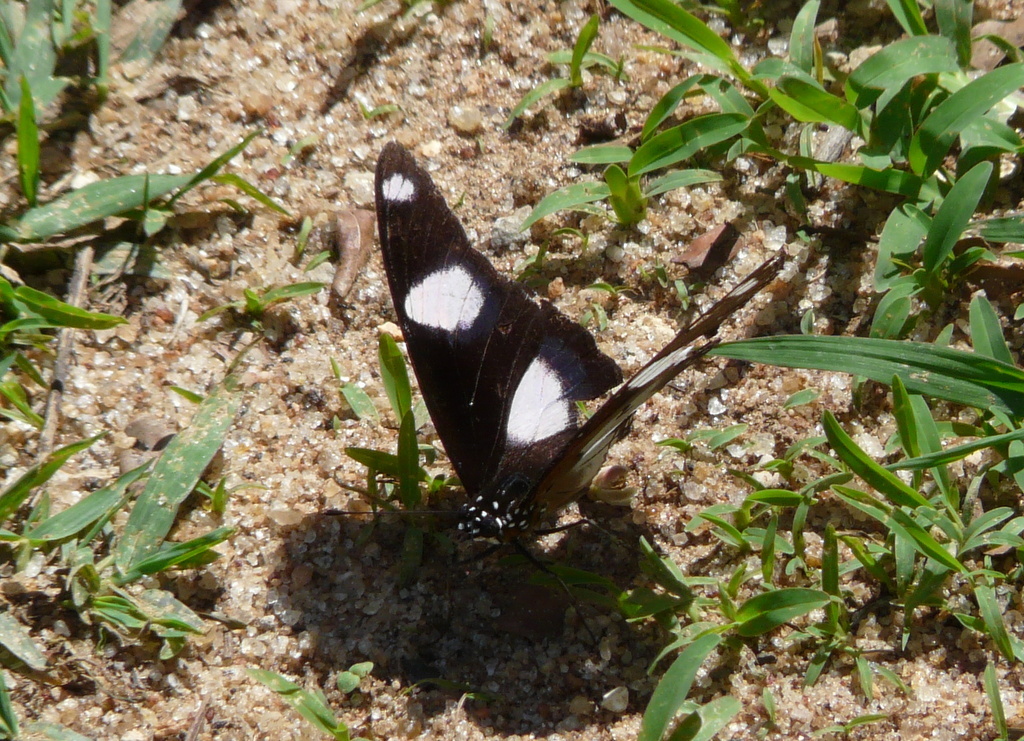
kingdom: Animalia
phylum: Arthropoda
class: Insecta
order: Lepidoptera
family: Nymphalidae
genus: Hypolimnas
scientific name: Hypolimnas misippus
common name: False plain tiger
